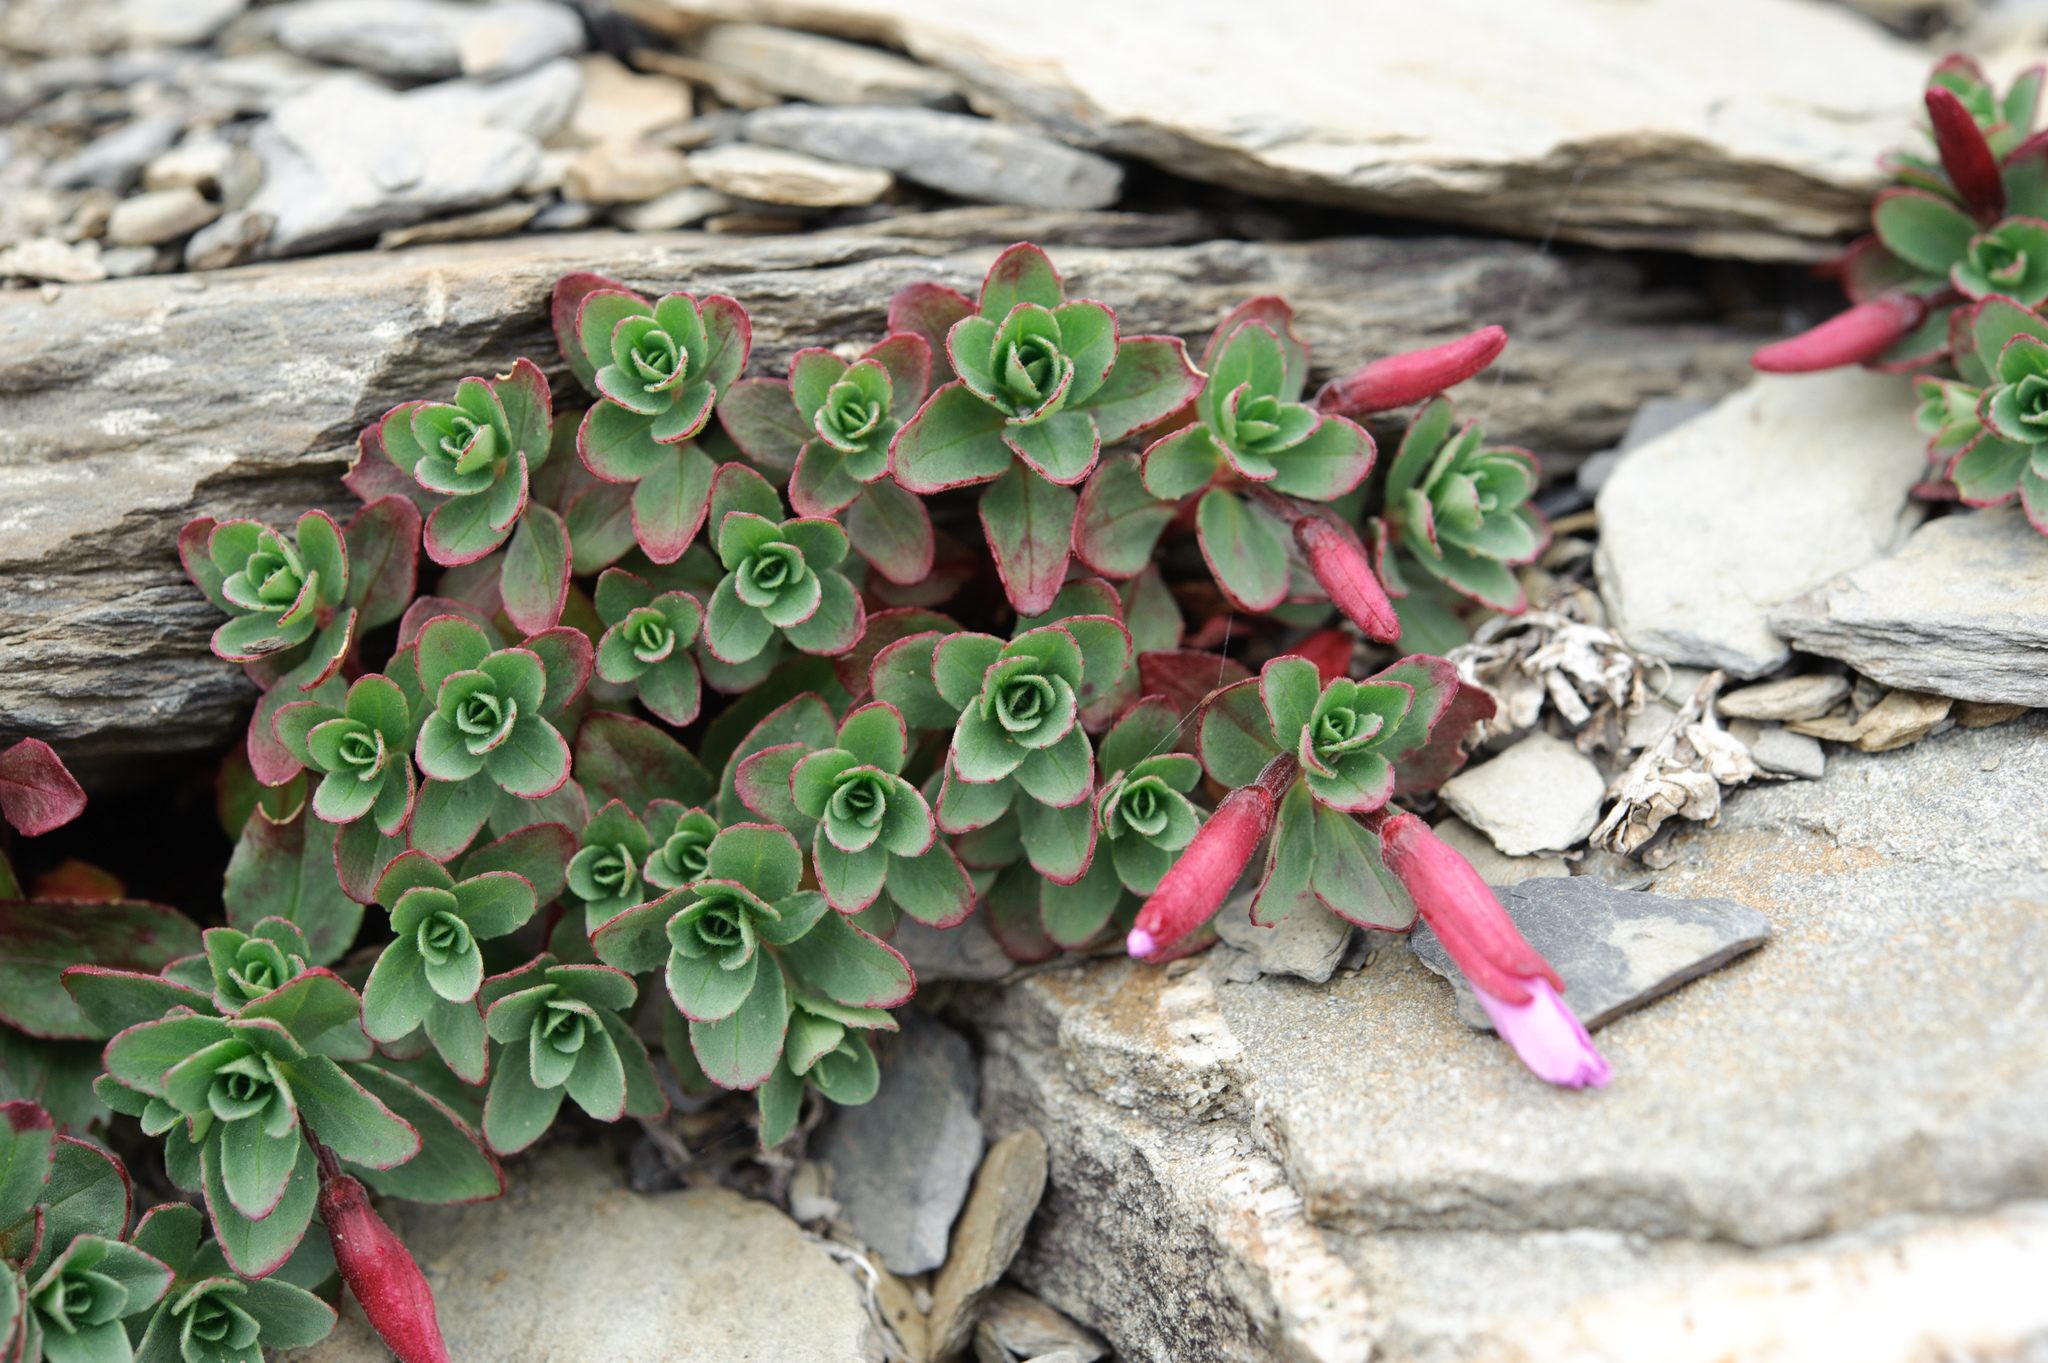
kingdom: Plantae
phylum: Tracheophyta
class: Magnoliopsida
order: Myrtales
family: Onagraceae
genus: Epilobium
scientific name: Epilobium nankotaizanense
